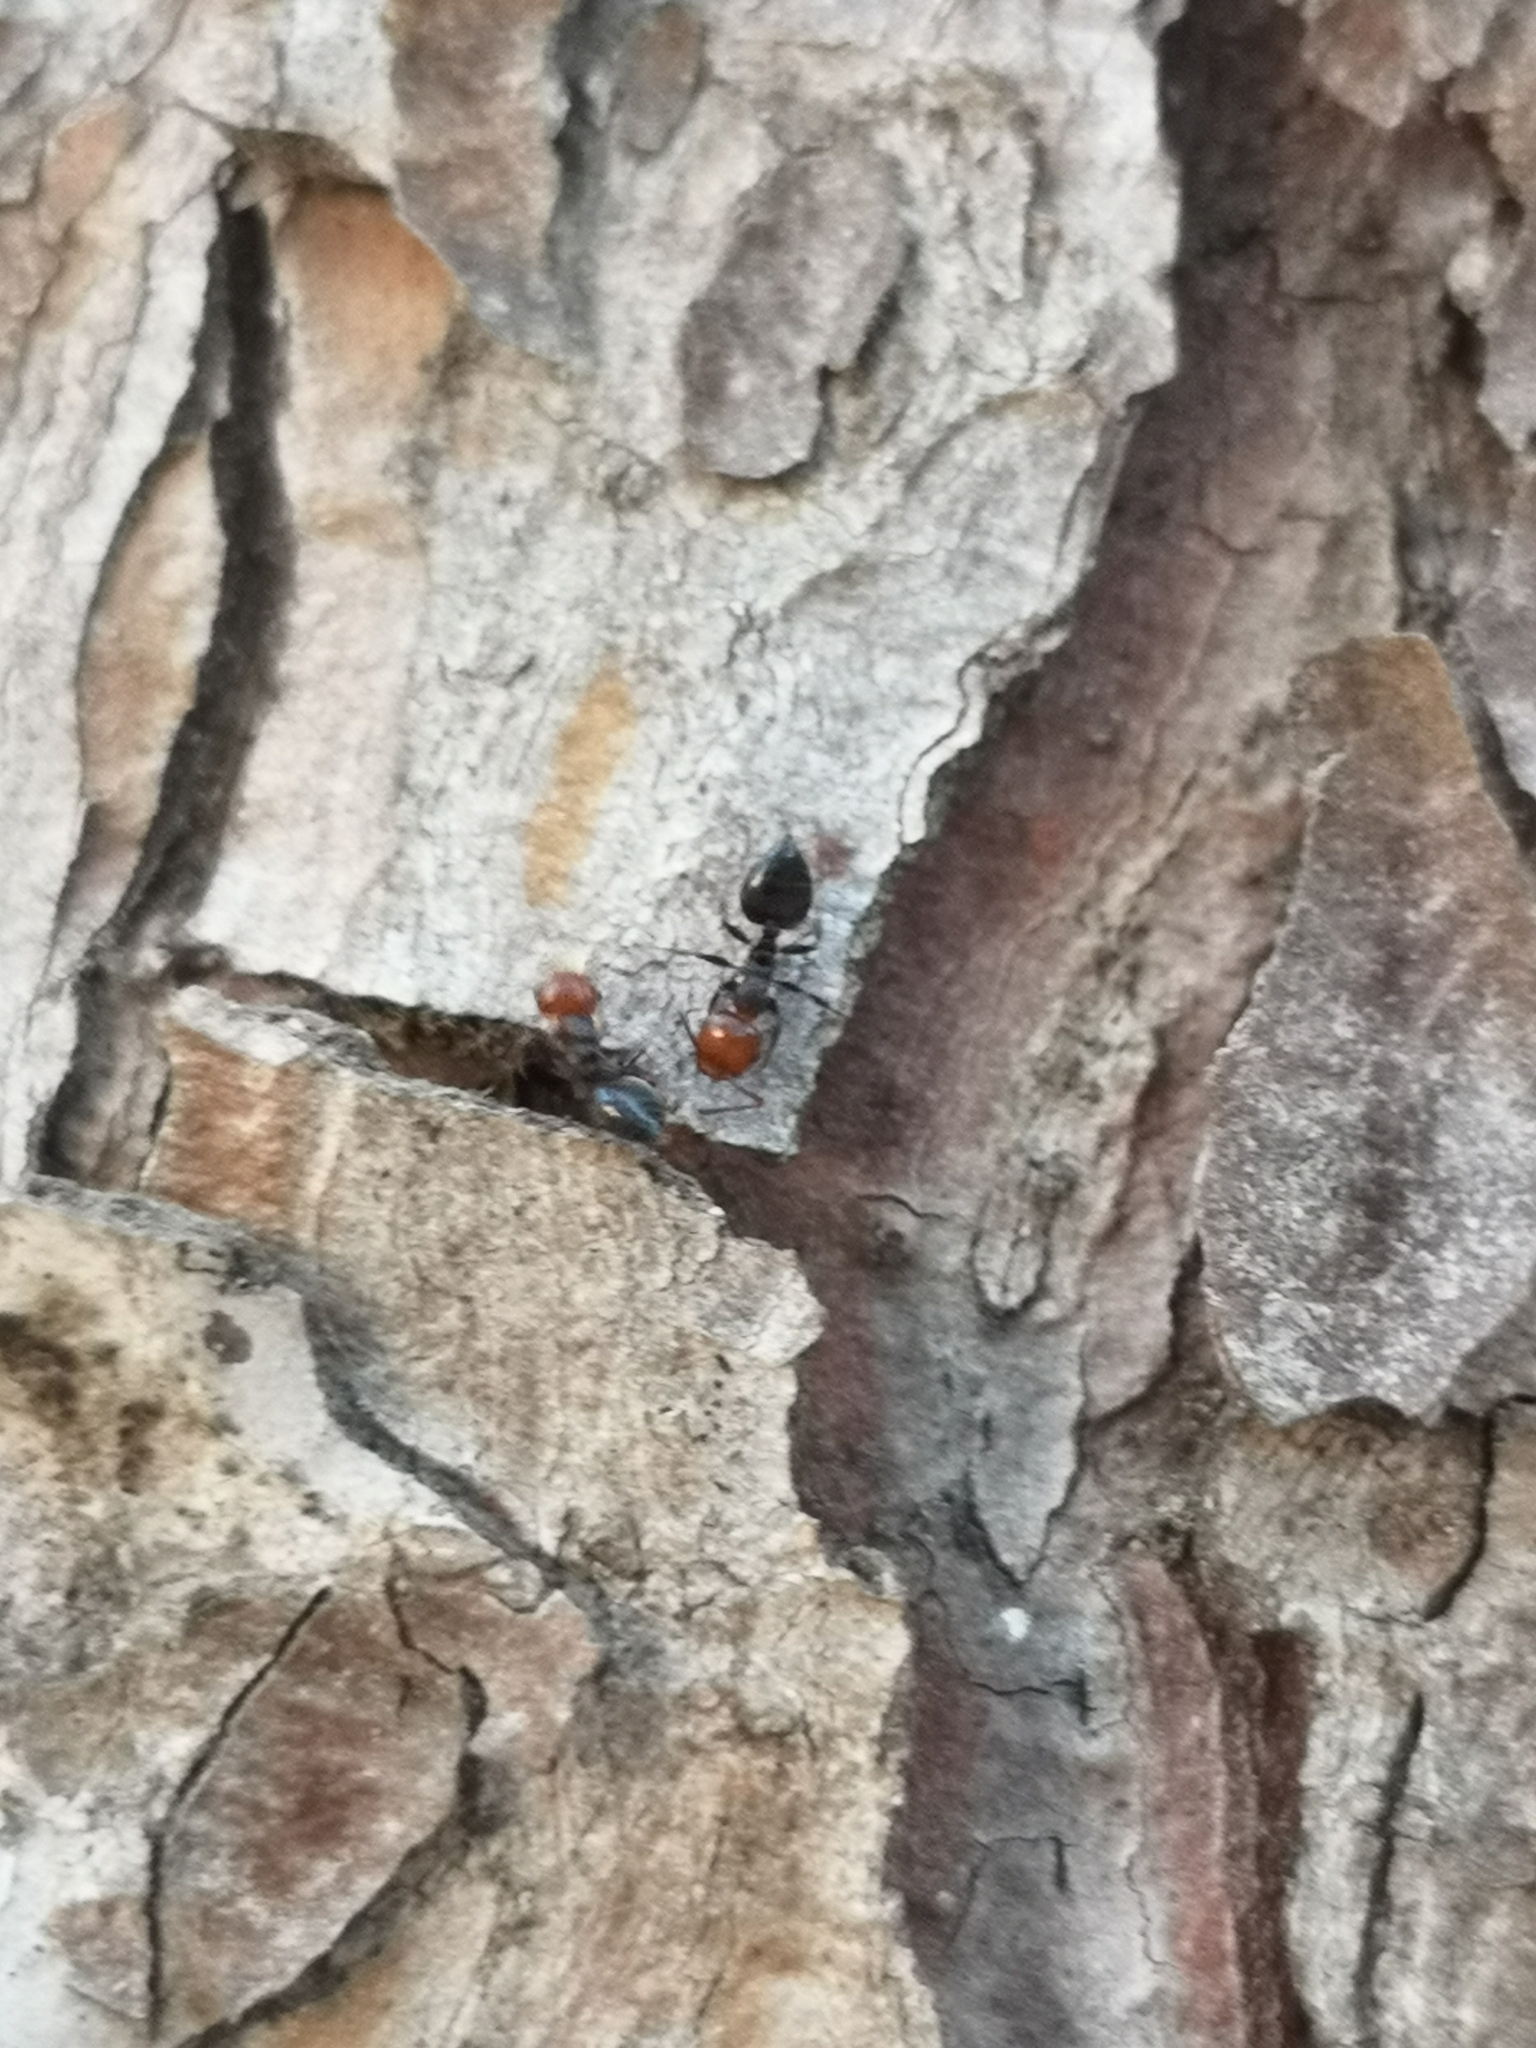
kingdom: Animalia
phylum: Arthropoda
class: Insecta
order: Hymenoptera
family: Formicidae
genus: Crematogaster
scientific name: Crematogaster scutellaris
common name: Fourmi du liège
